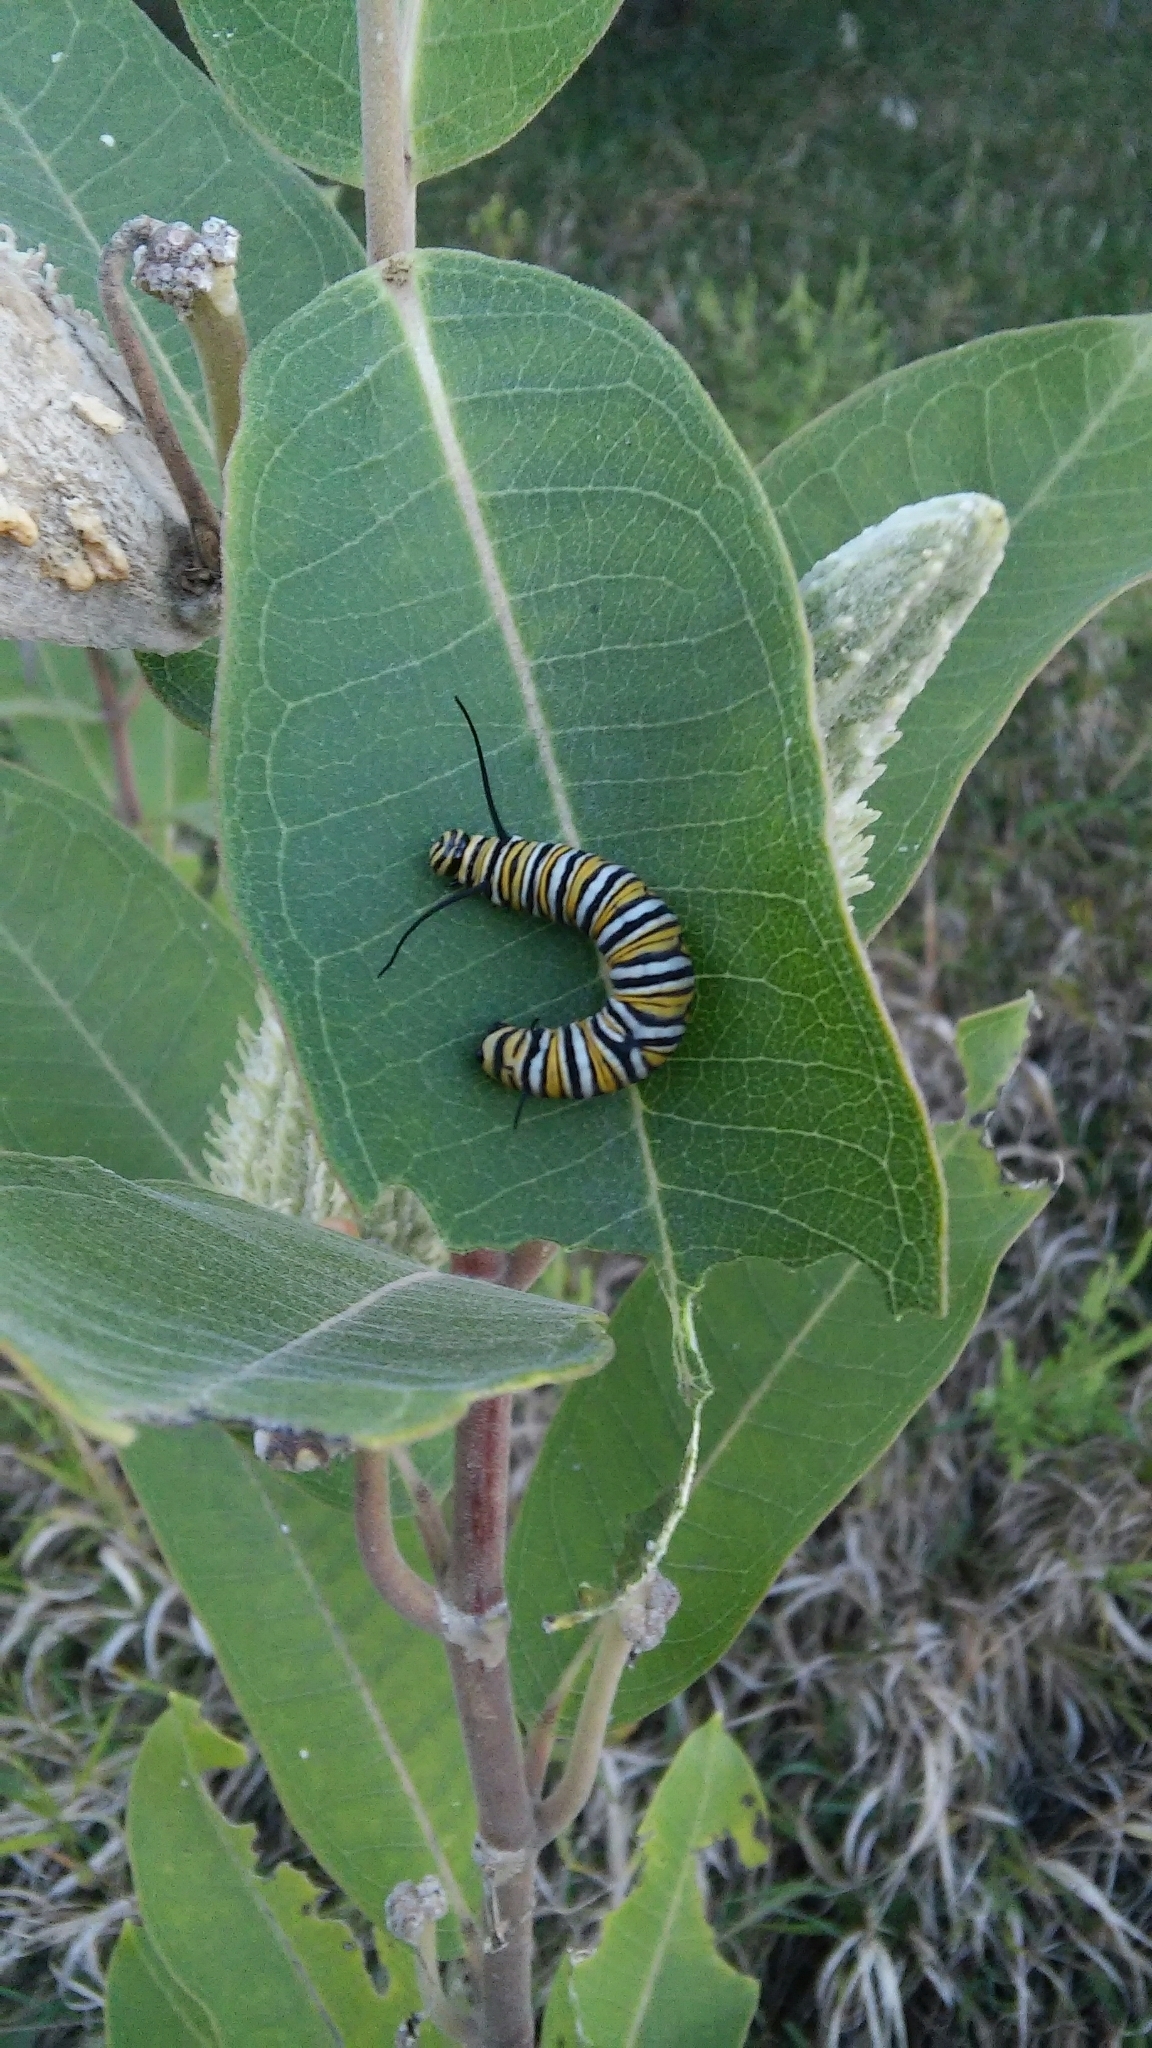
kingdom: Animalia
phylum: Arthropoda
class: Insecta
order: Lepidoptera
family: Nymphalidae
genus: Danaus
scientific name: Danaus plexippus
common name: Monarch
